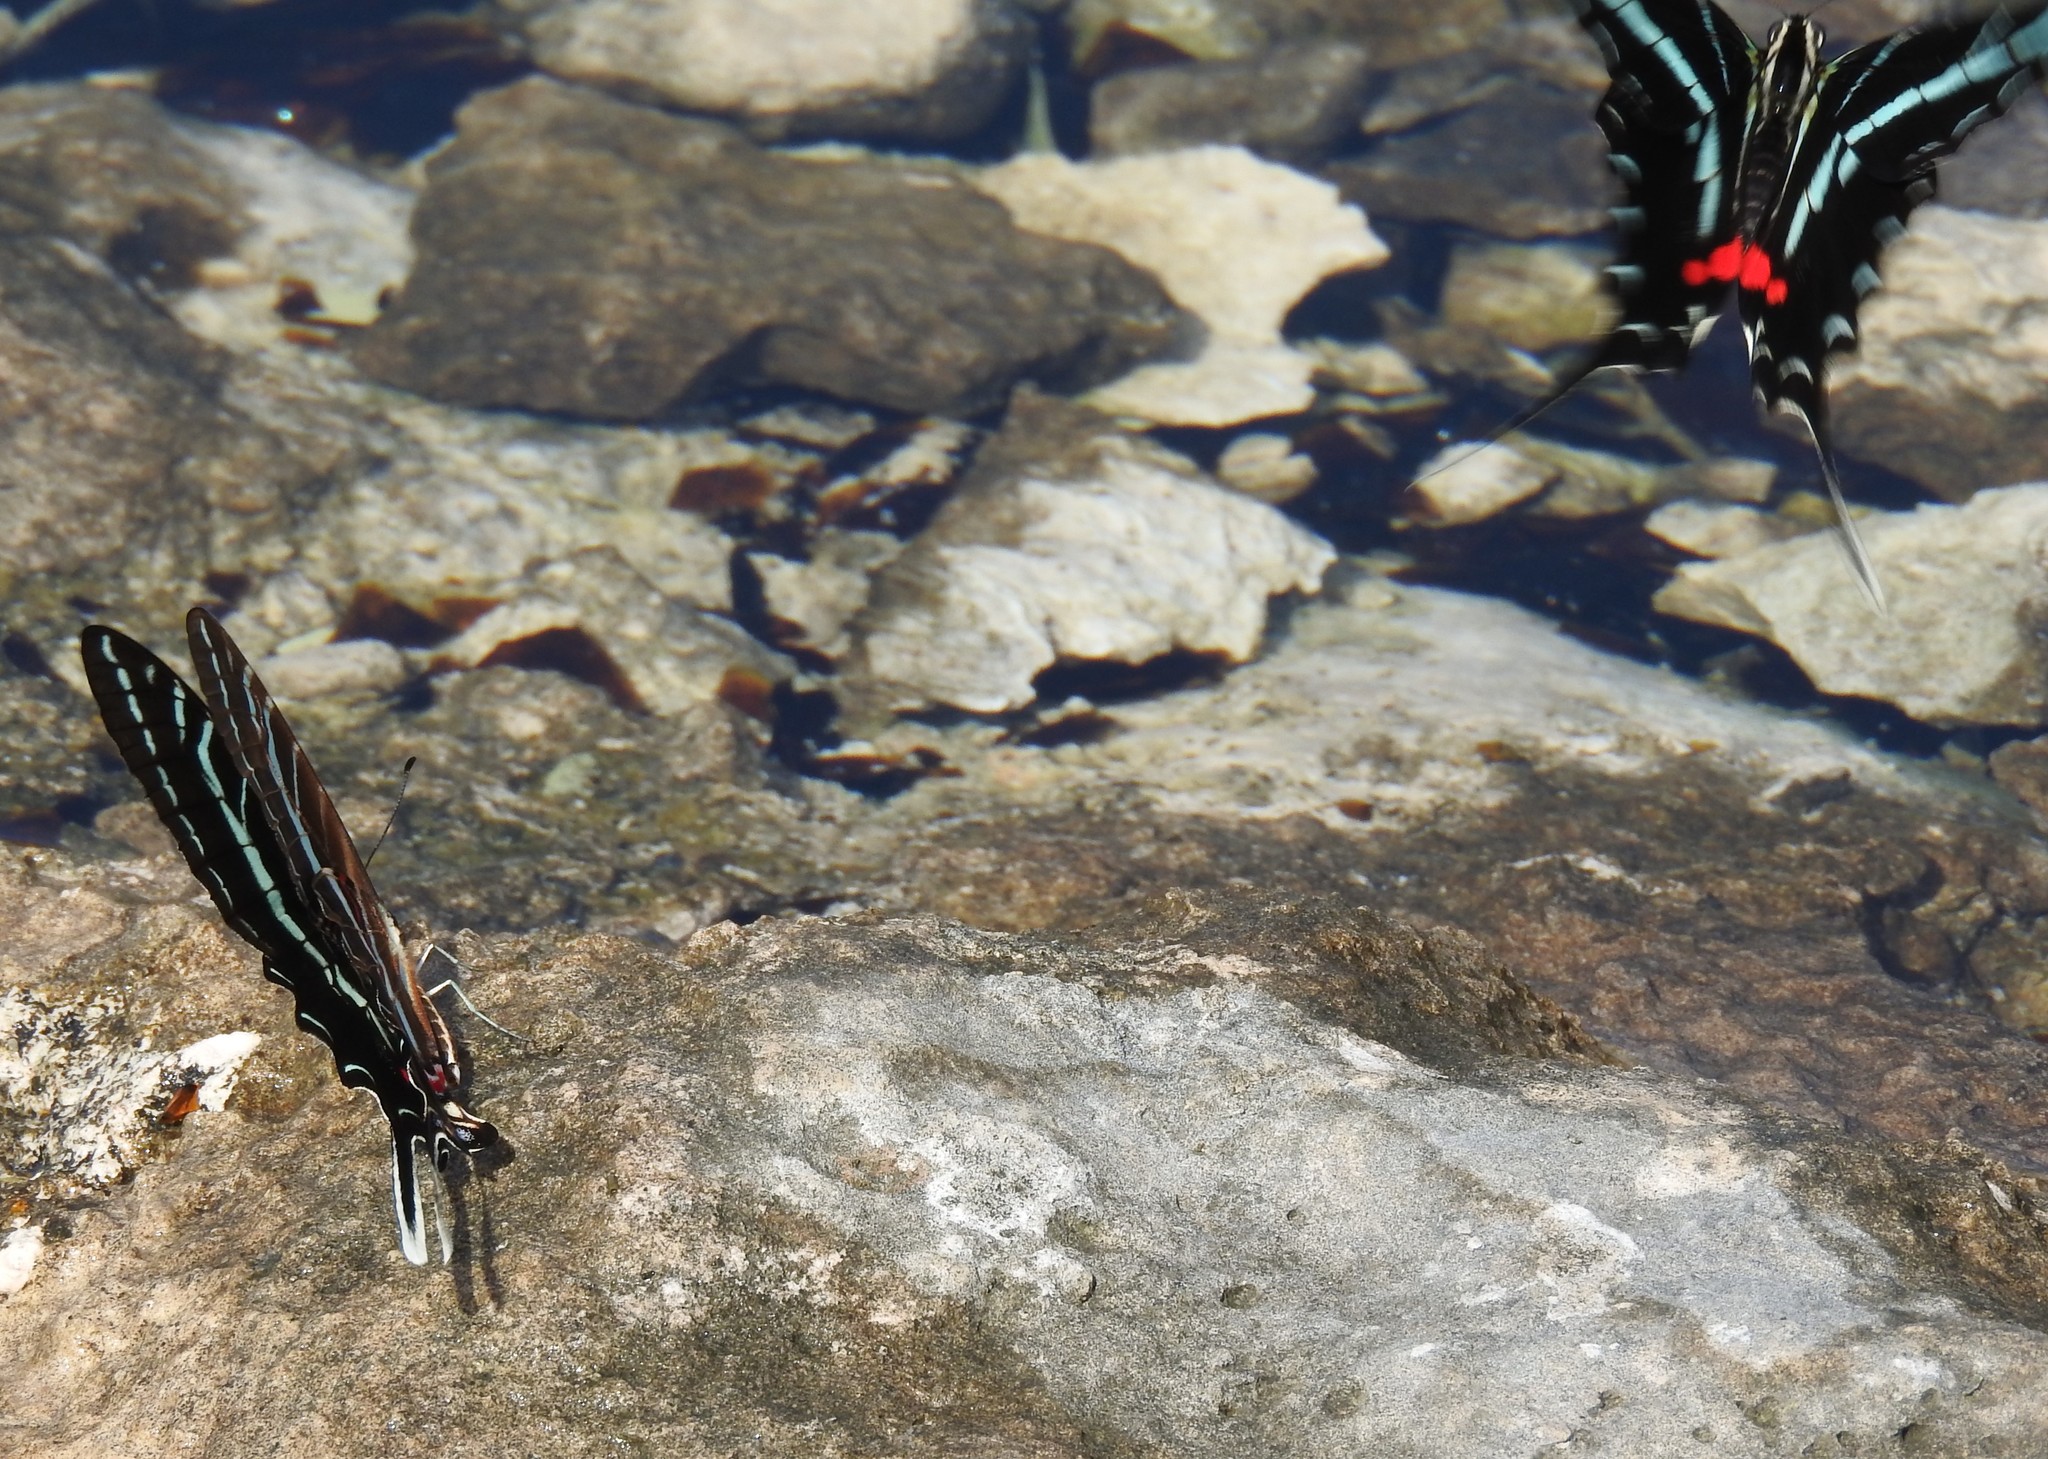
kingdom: Animalia
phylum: Arthropoda
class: Insecta
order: Lepidoptera
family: Papilionidae
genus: Protographium
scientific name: Protographium philolaus
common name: Dark zebra swallowtail
